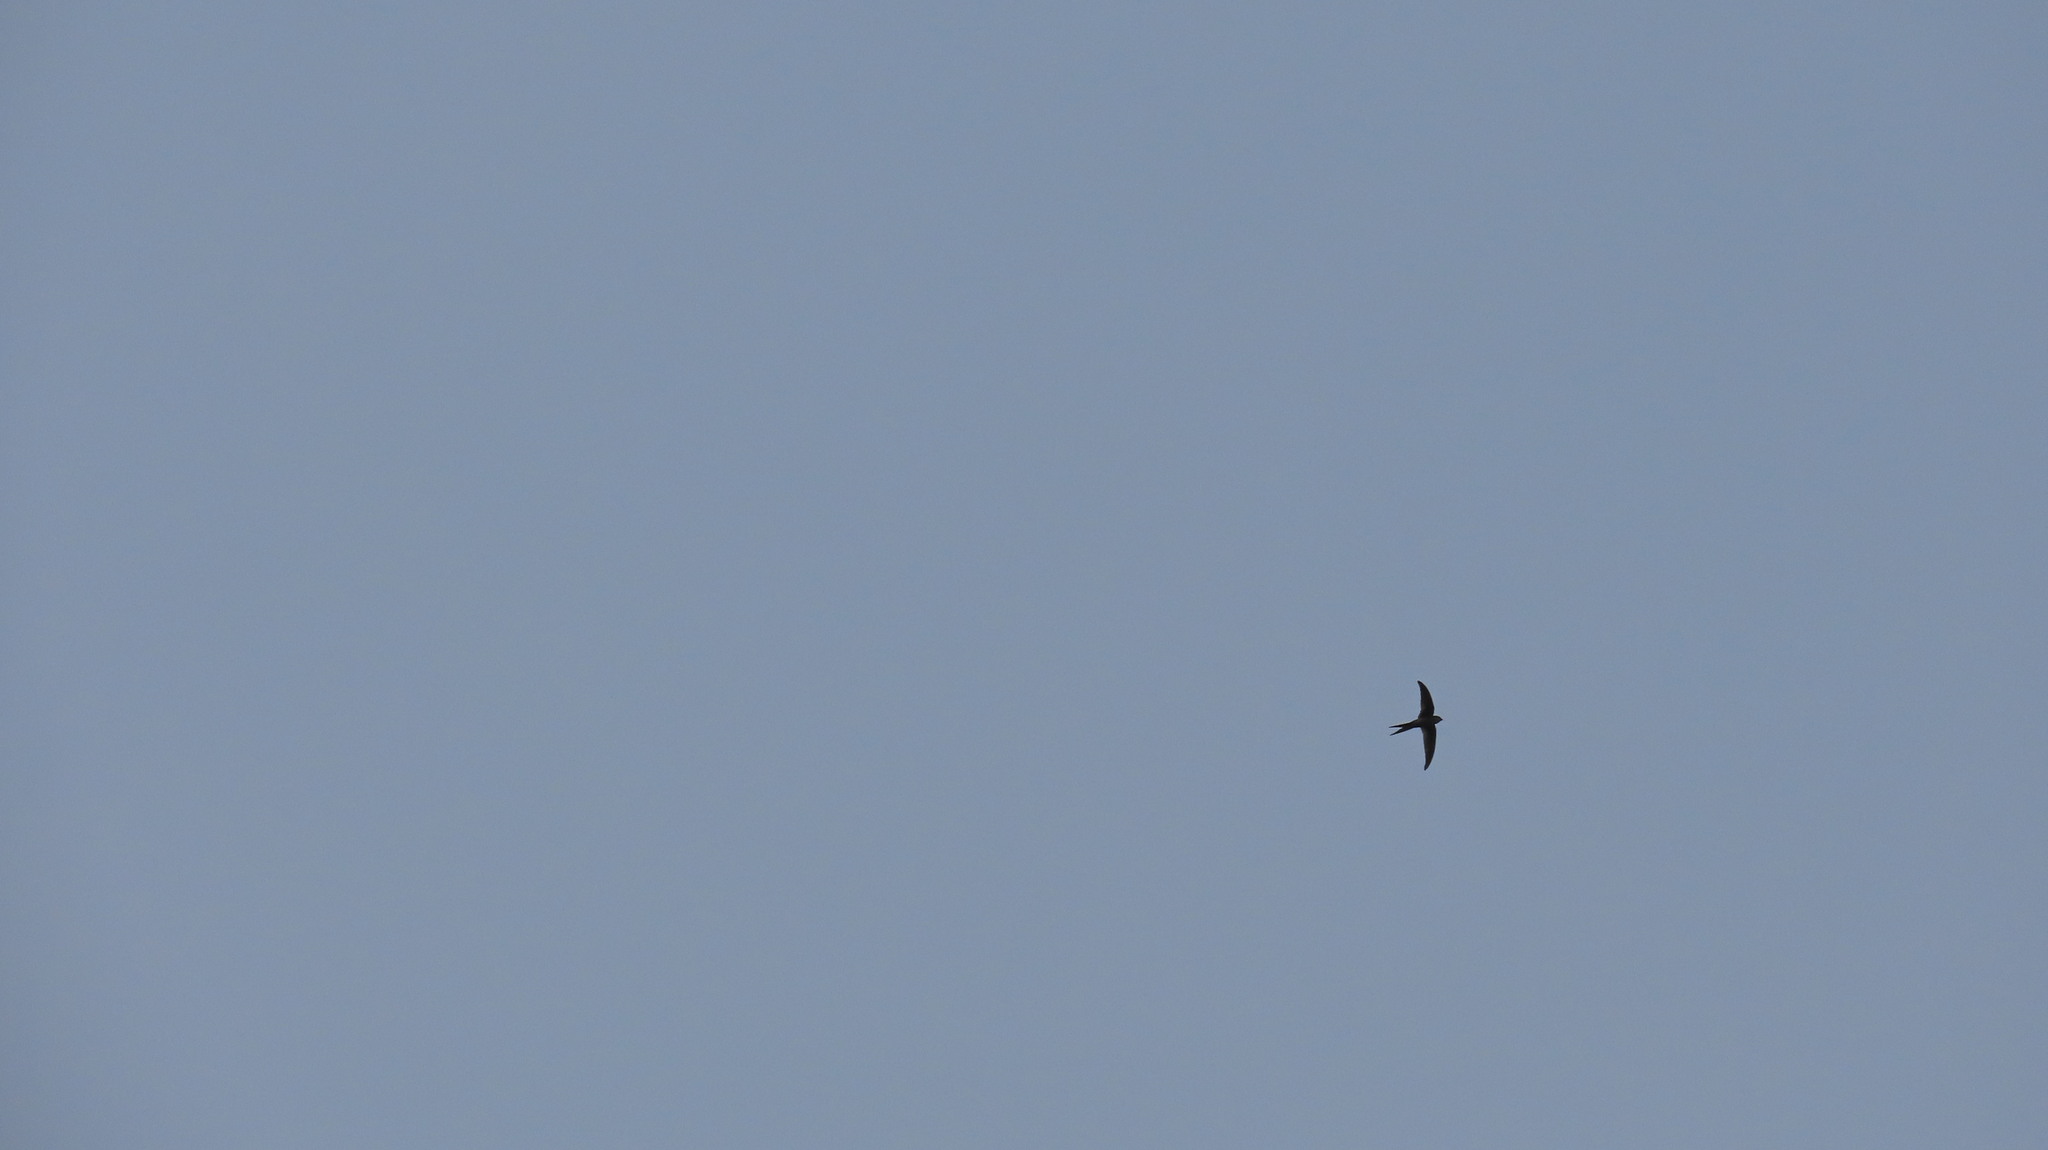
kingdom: Animalia
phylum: Chordata
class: Aves
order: Apodiformes
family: Apodidae
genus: Cypsiurus
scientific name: Cypsiurus balasiensis
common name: Asian palm swift
